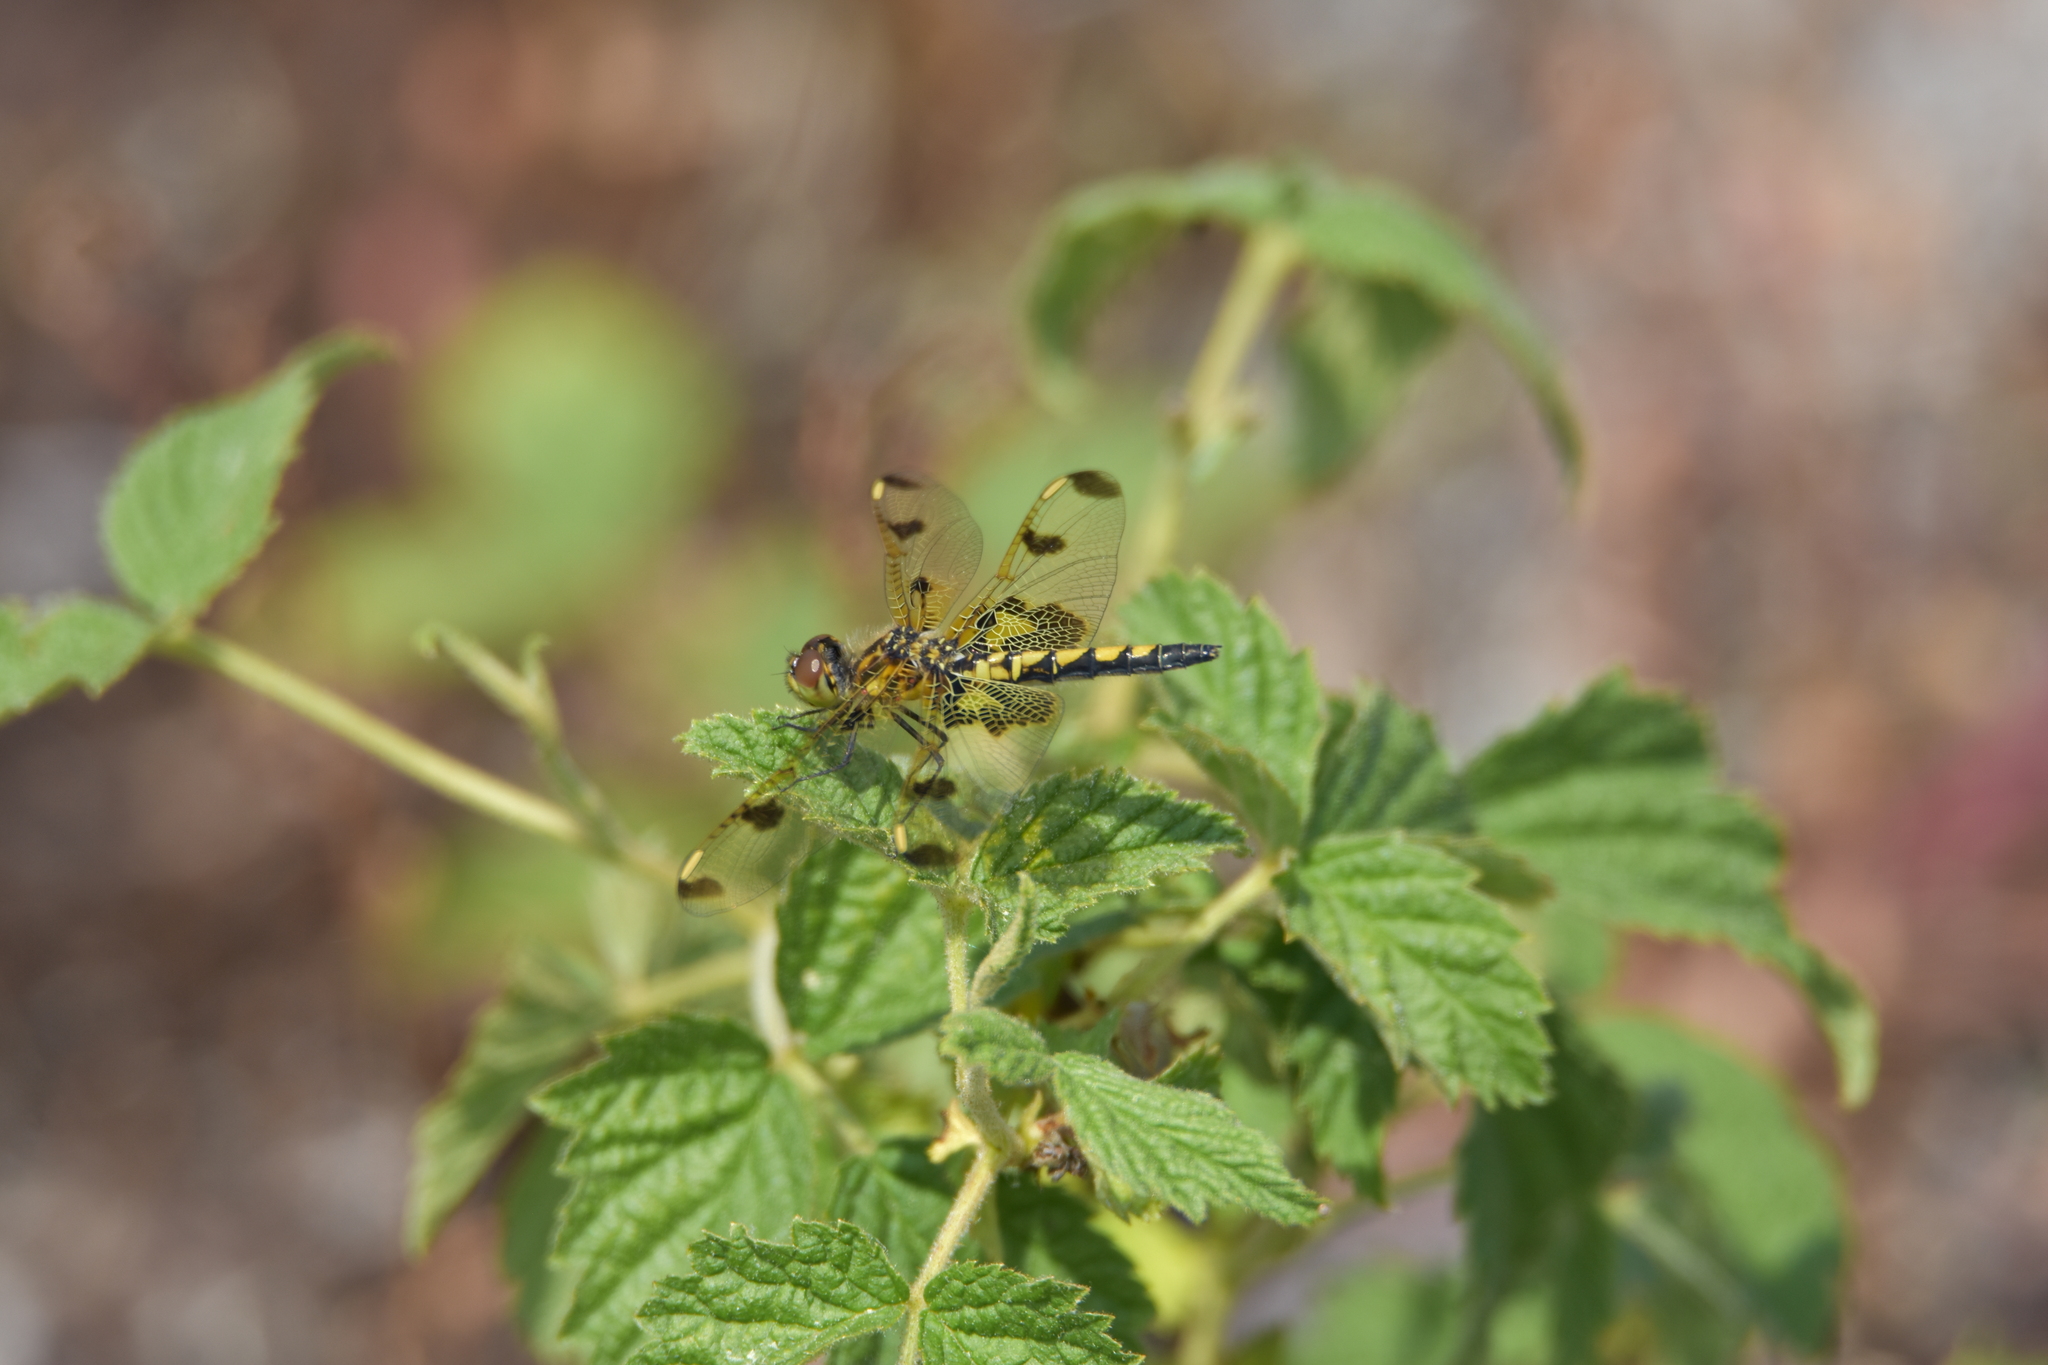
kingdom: Animalia
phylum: Arthropoda
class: Insecta
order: Odonata
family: Libellulidae
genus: Celithemis
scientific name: Celithemis elisa
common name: Calico pennant
